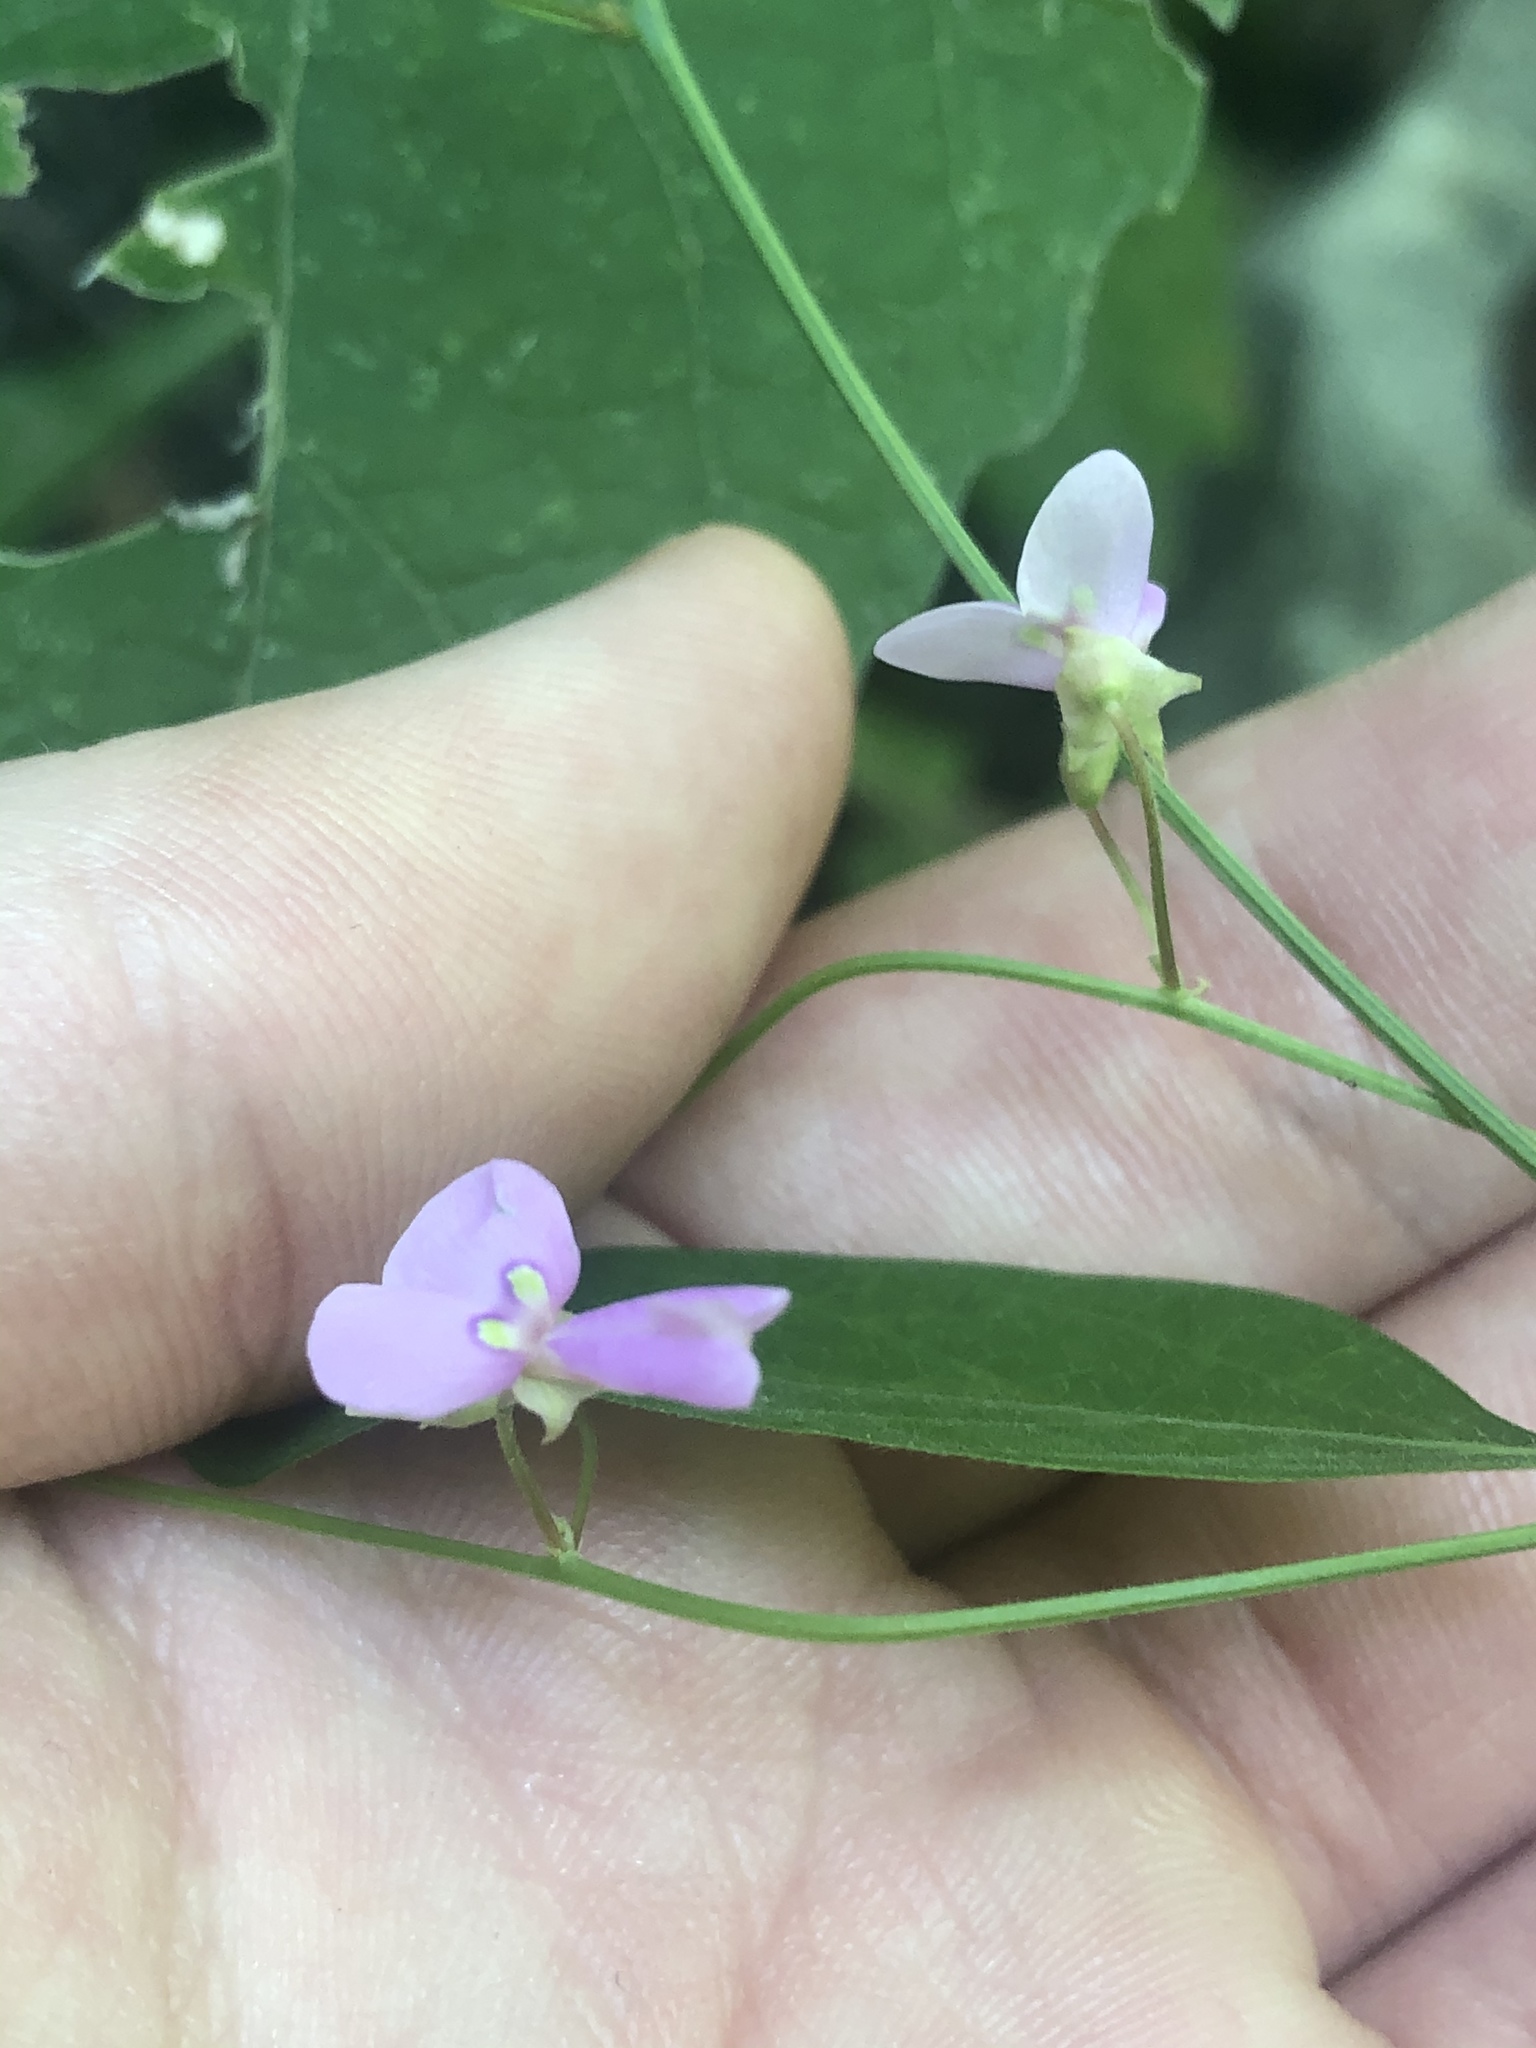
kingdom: Plantae
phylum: Tracheophyta
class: Magnoliopsida
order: Fabales
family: Fabaceae
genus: Desmodium
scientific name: Desmodium paniculatum
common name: Panicled tick-clover
